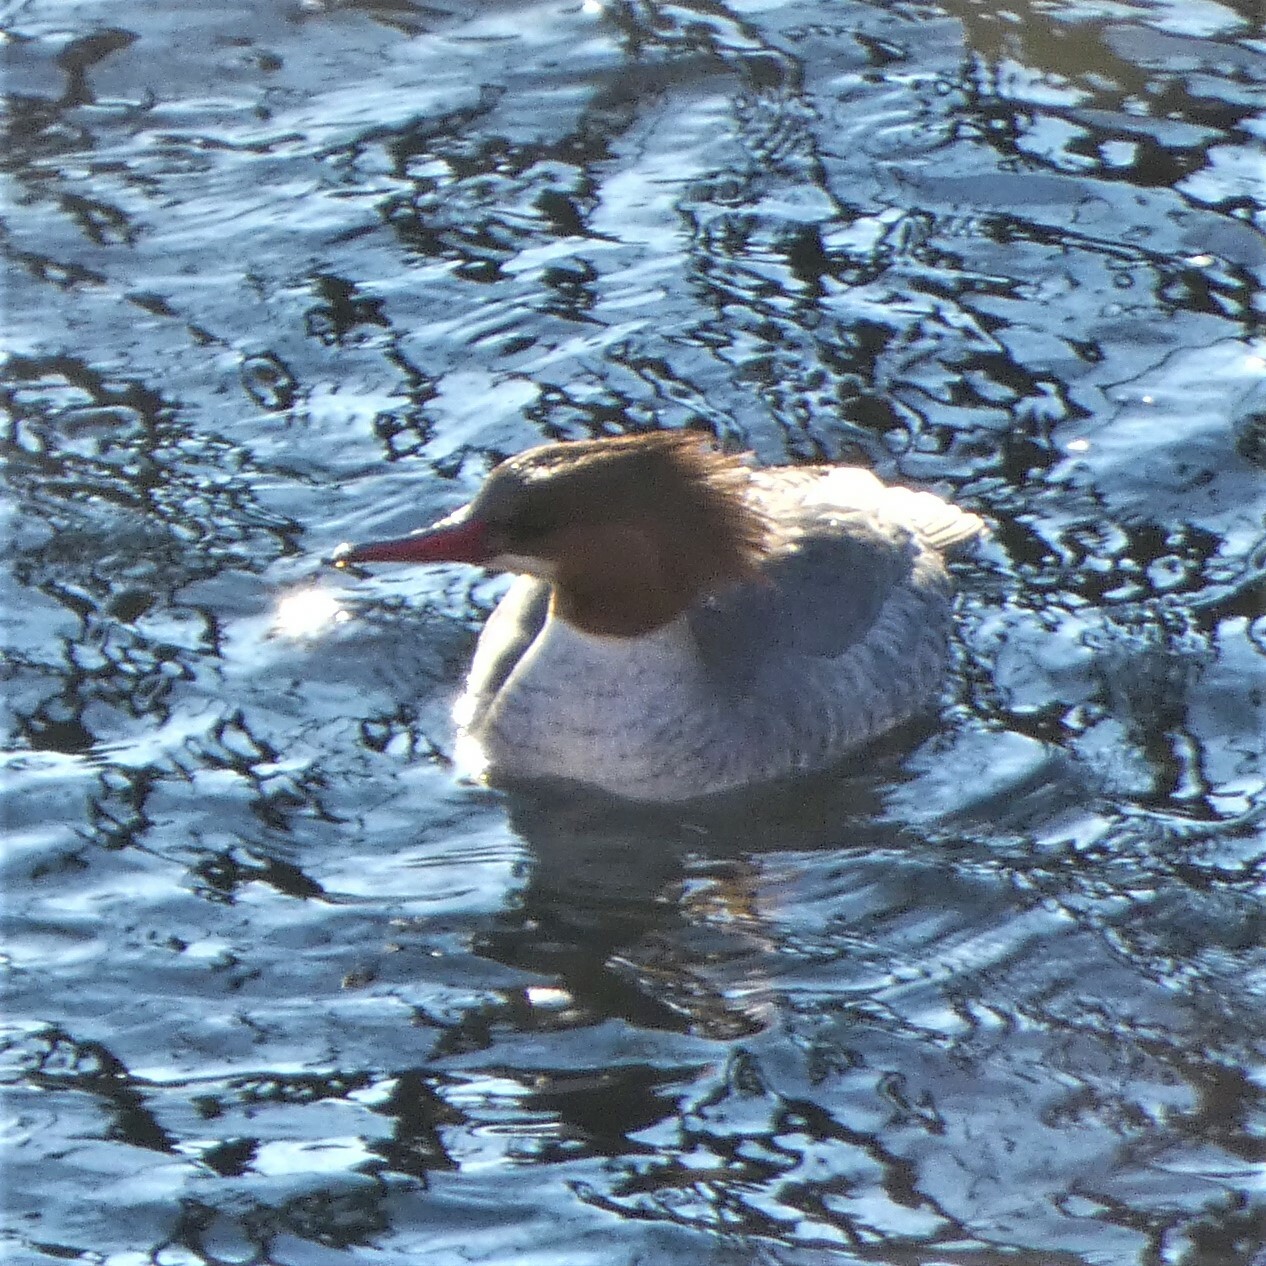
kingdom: Animalia
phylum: Chordata
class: Aves
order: Anseriformes
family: Anatidae
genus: Mergus
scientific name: Mergus merganser
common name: Common merganser
